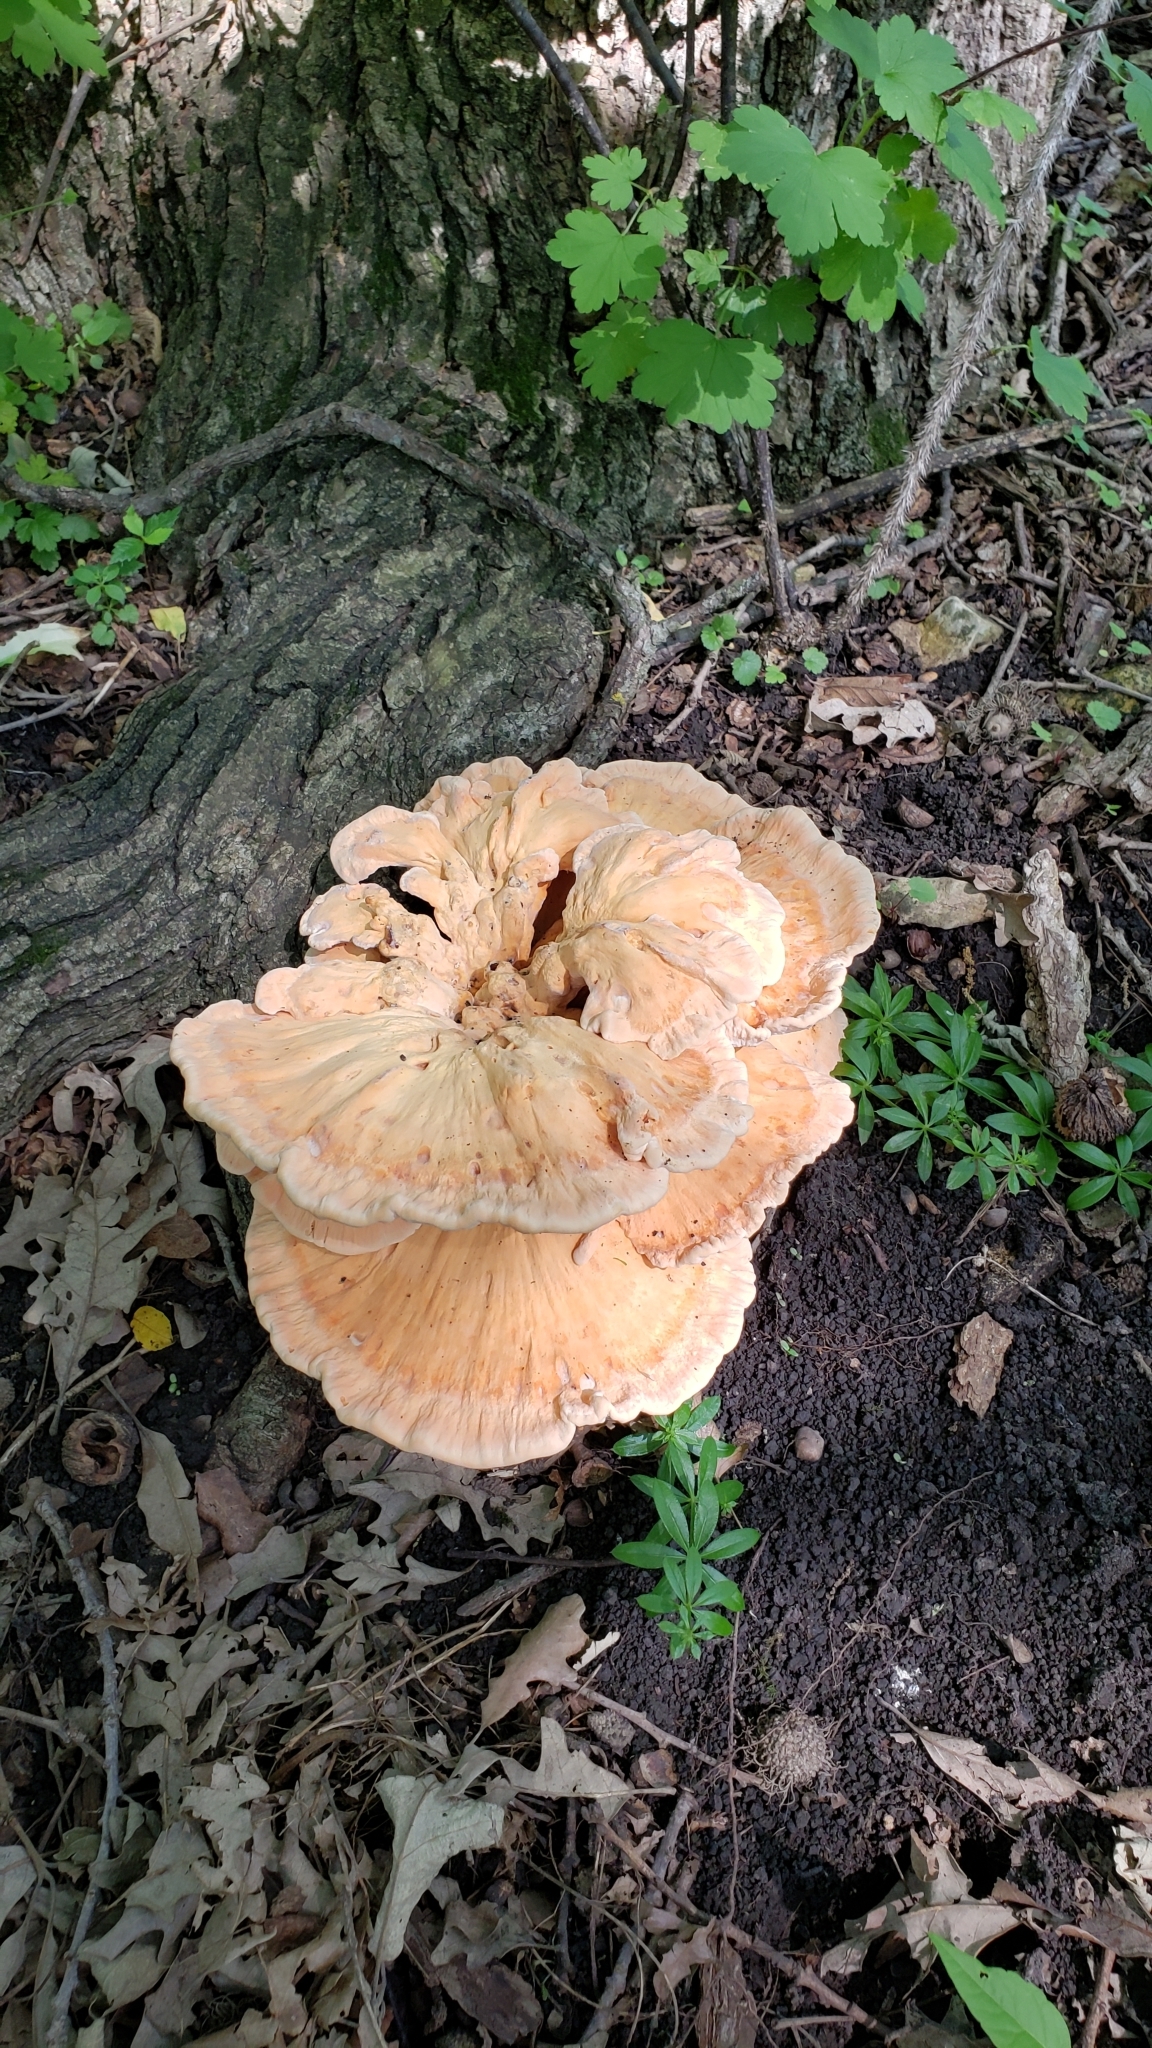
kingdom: Fungi
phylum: Basidiomycota
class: Agaricomycetes
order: Polyporales
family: Laetiporaceae
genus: Laetiporus
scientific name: Laetiporus sulphureus
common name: Chicken of the woods
